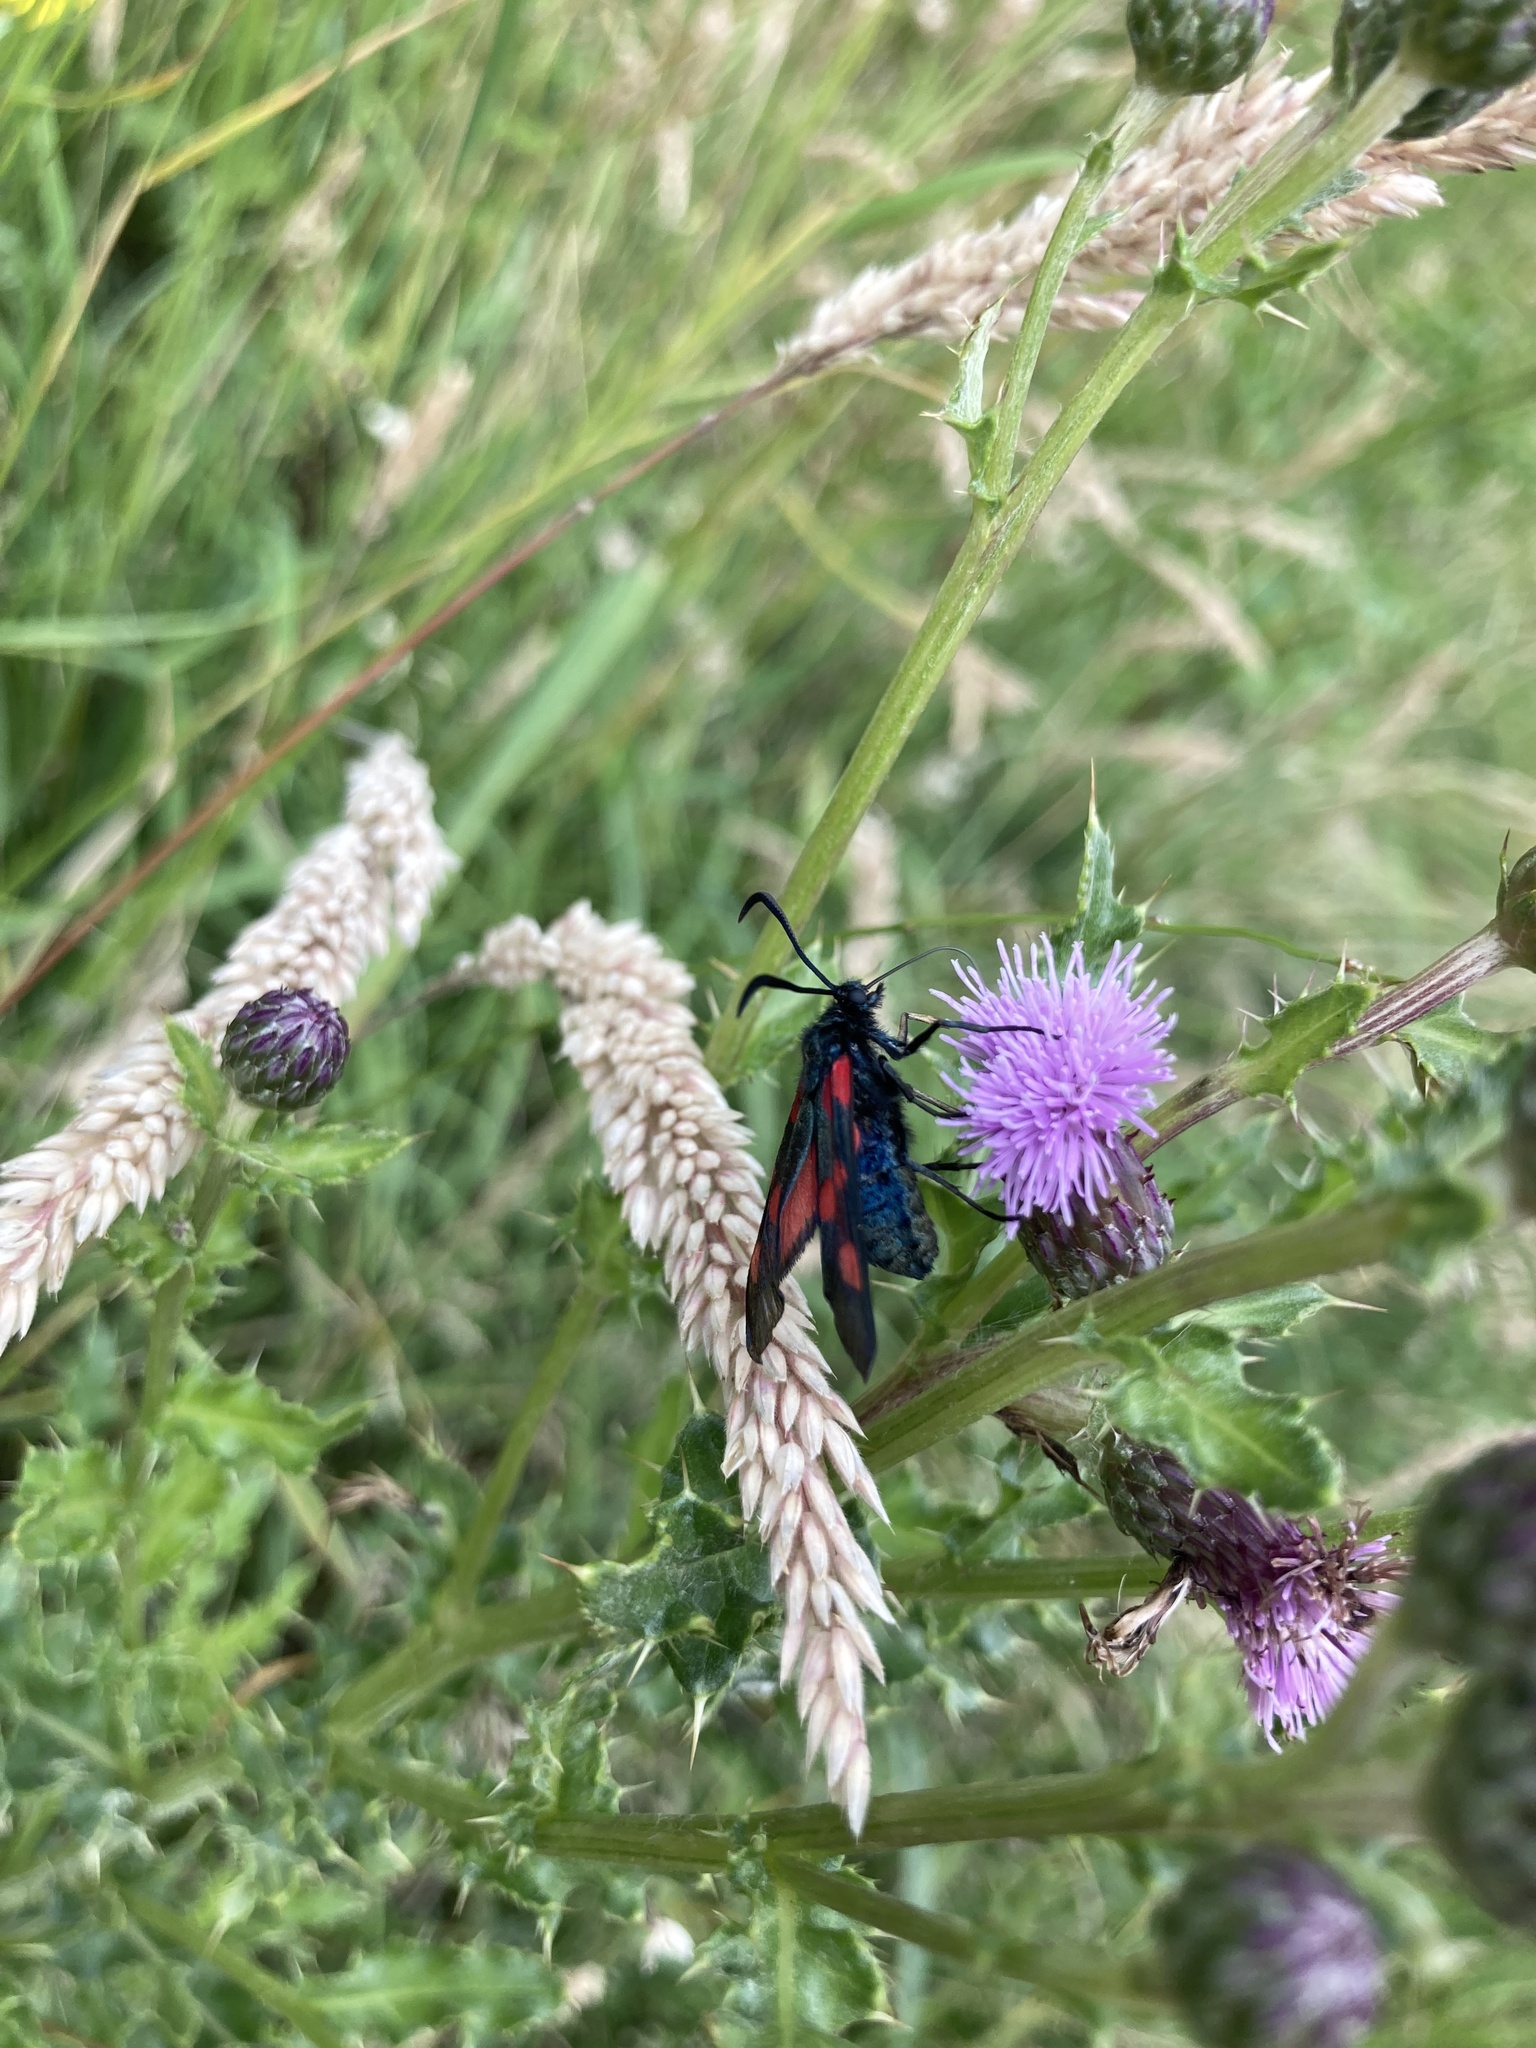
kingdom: Animalia
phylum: Arthropoda
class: Insecta
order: Lepidoptera
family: Zygaenidae
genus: Zygaena
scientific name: Zygaena lonicerae
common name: Narrow-bordered five-spot burnet
